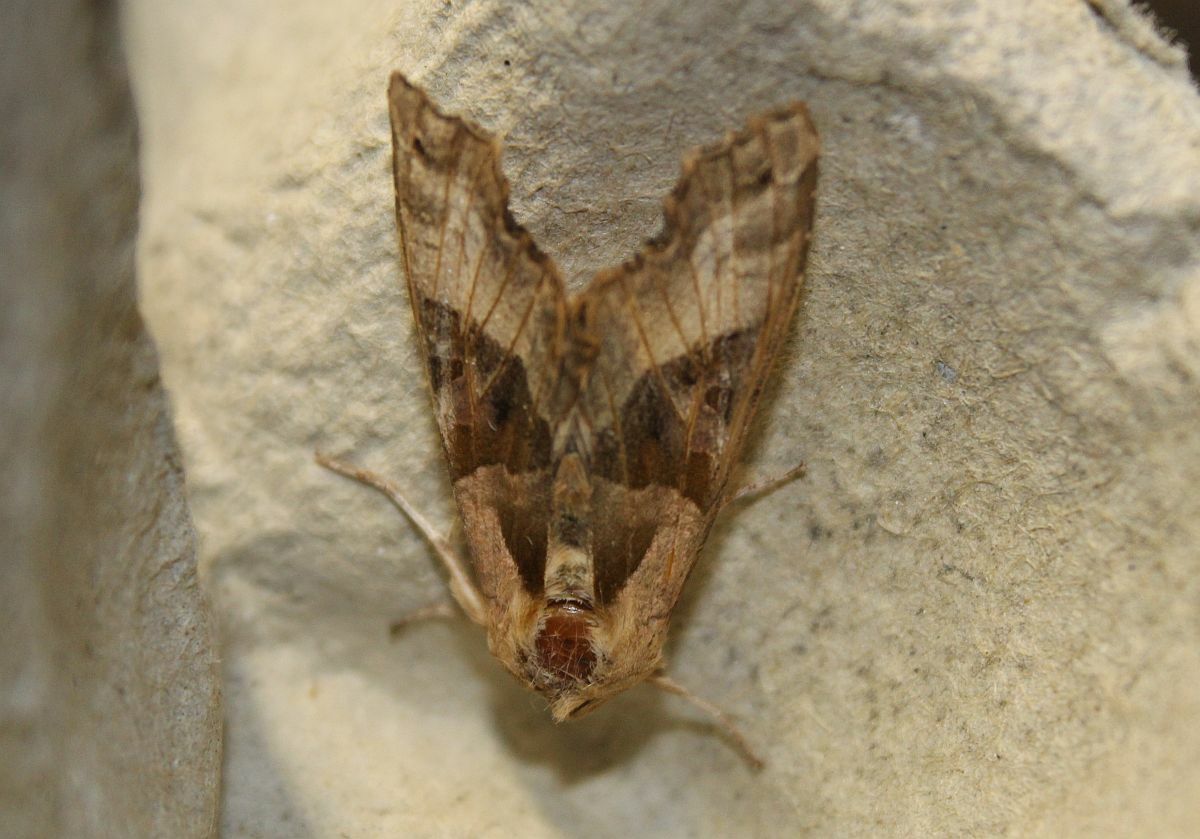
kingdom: Animalia
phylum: Arthropoda
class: Insecta
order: Lepidoptera
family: Noctuidae
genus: Phlogophora
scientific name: Phlogophora meticulosa
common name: Angle shades
